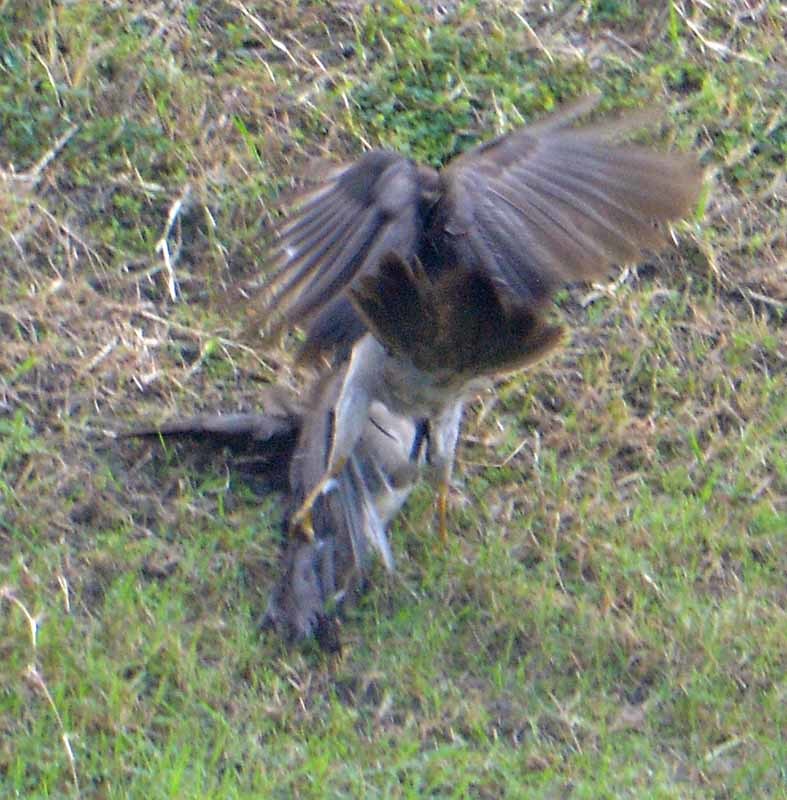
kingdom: Animalia
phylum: Chordata
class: Aves
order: Passeriformes
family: Corvidae
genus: Psilorhinus
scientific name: Psilorhinus morio
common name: Brown jay
